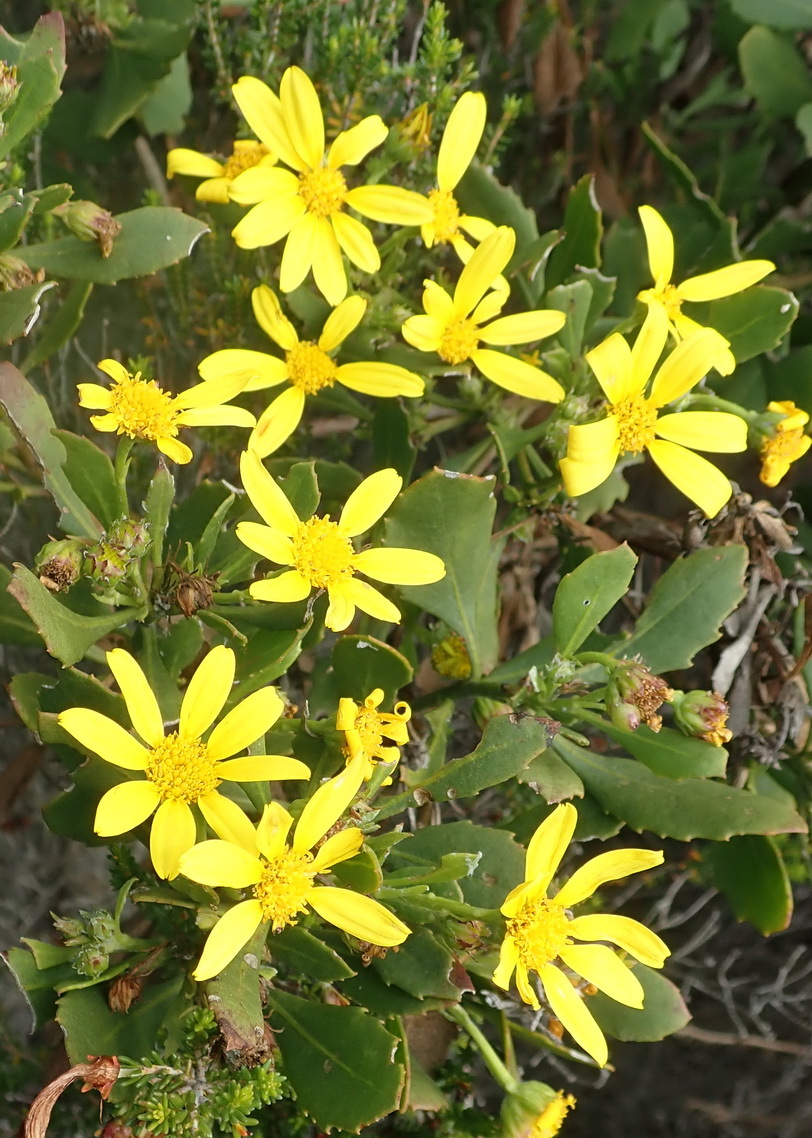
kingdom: Plantae
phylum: Tracheophyta
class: Magnoliopsida
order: Asterales
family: Asteraceae
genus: Osteospermum
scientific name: Osteospermum moniliferum
